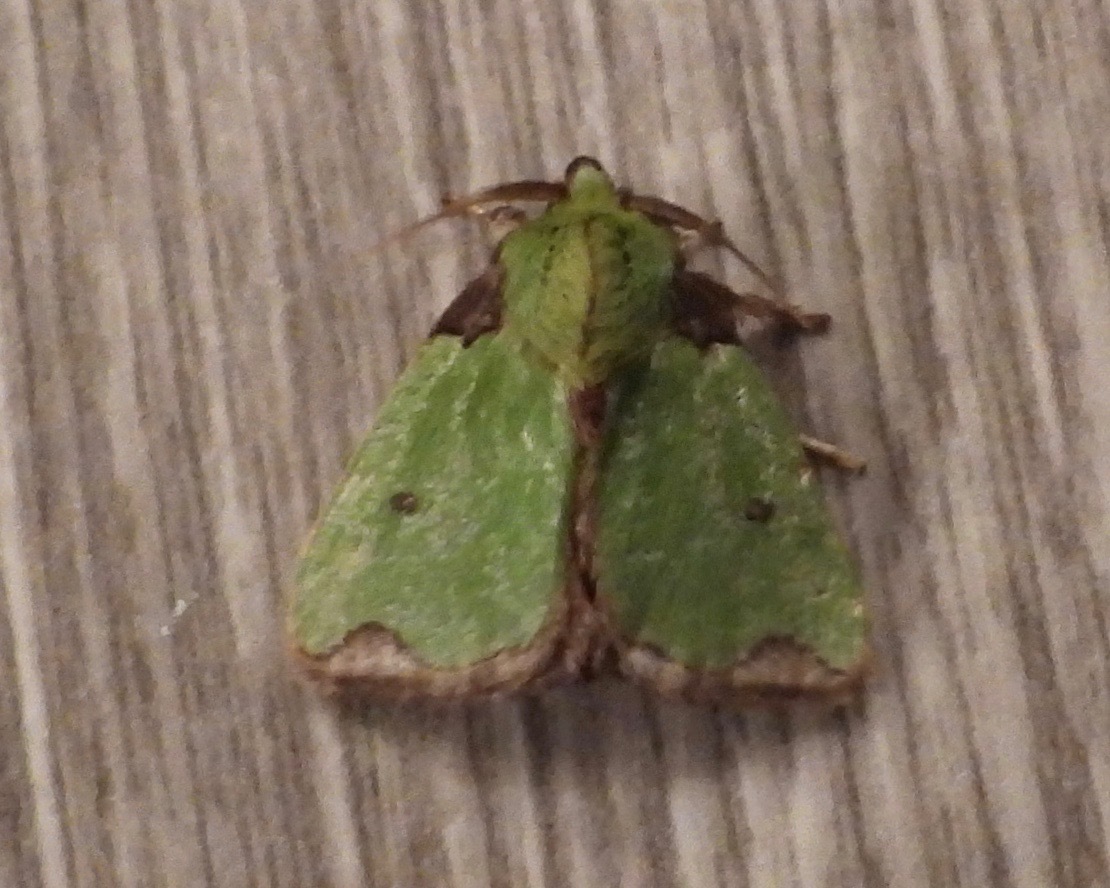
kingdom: Animalia
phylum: Arthropoda
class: Insecta
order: Lepidoptera
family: Limacodidae
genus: Parasa
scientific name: Parasa wellesca
